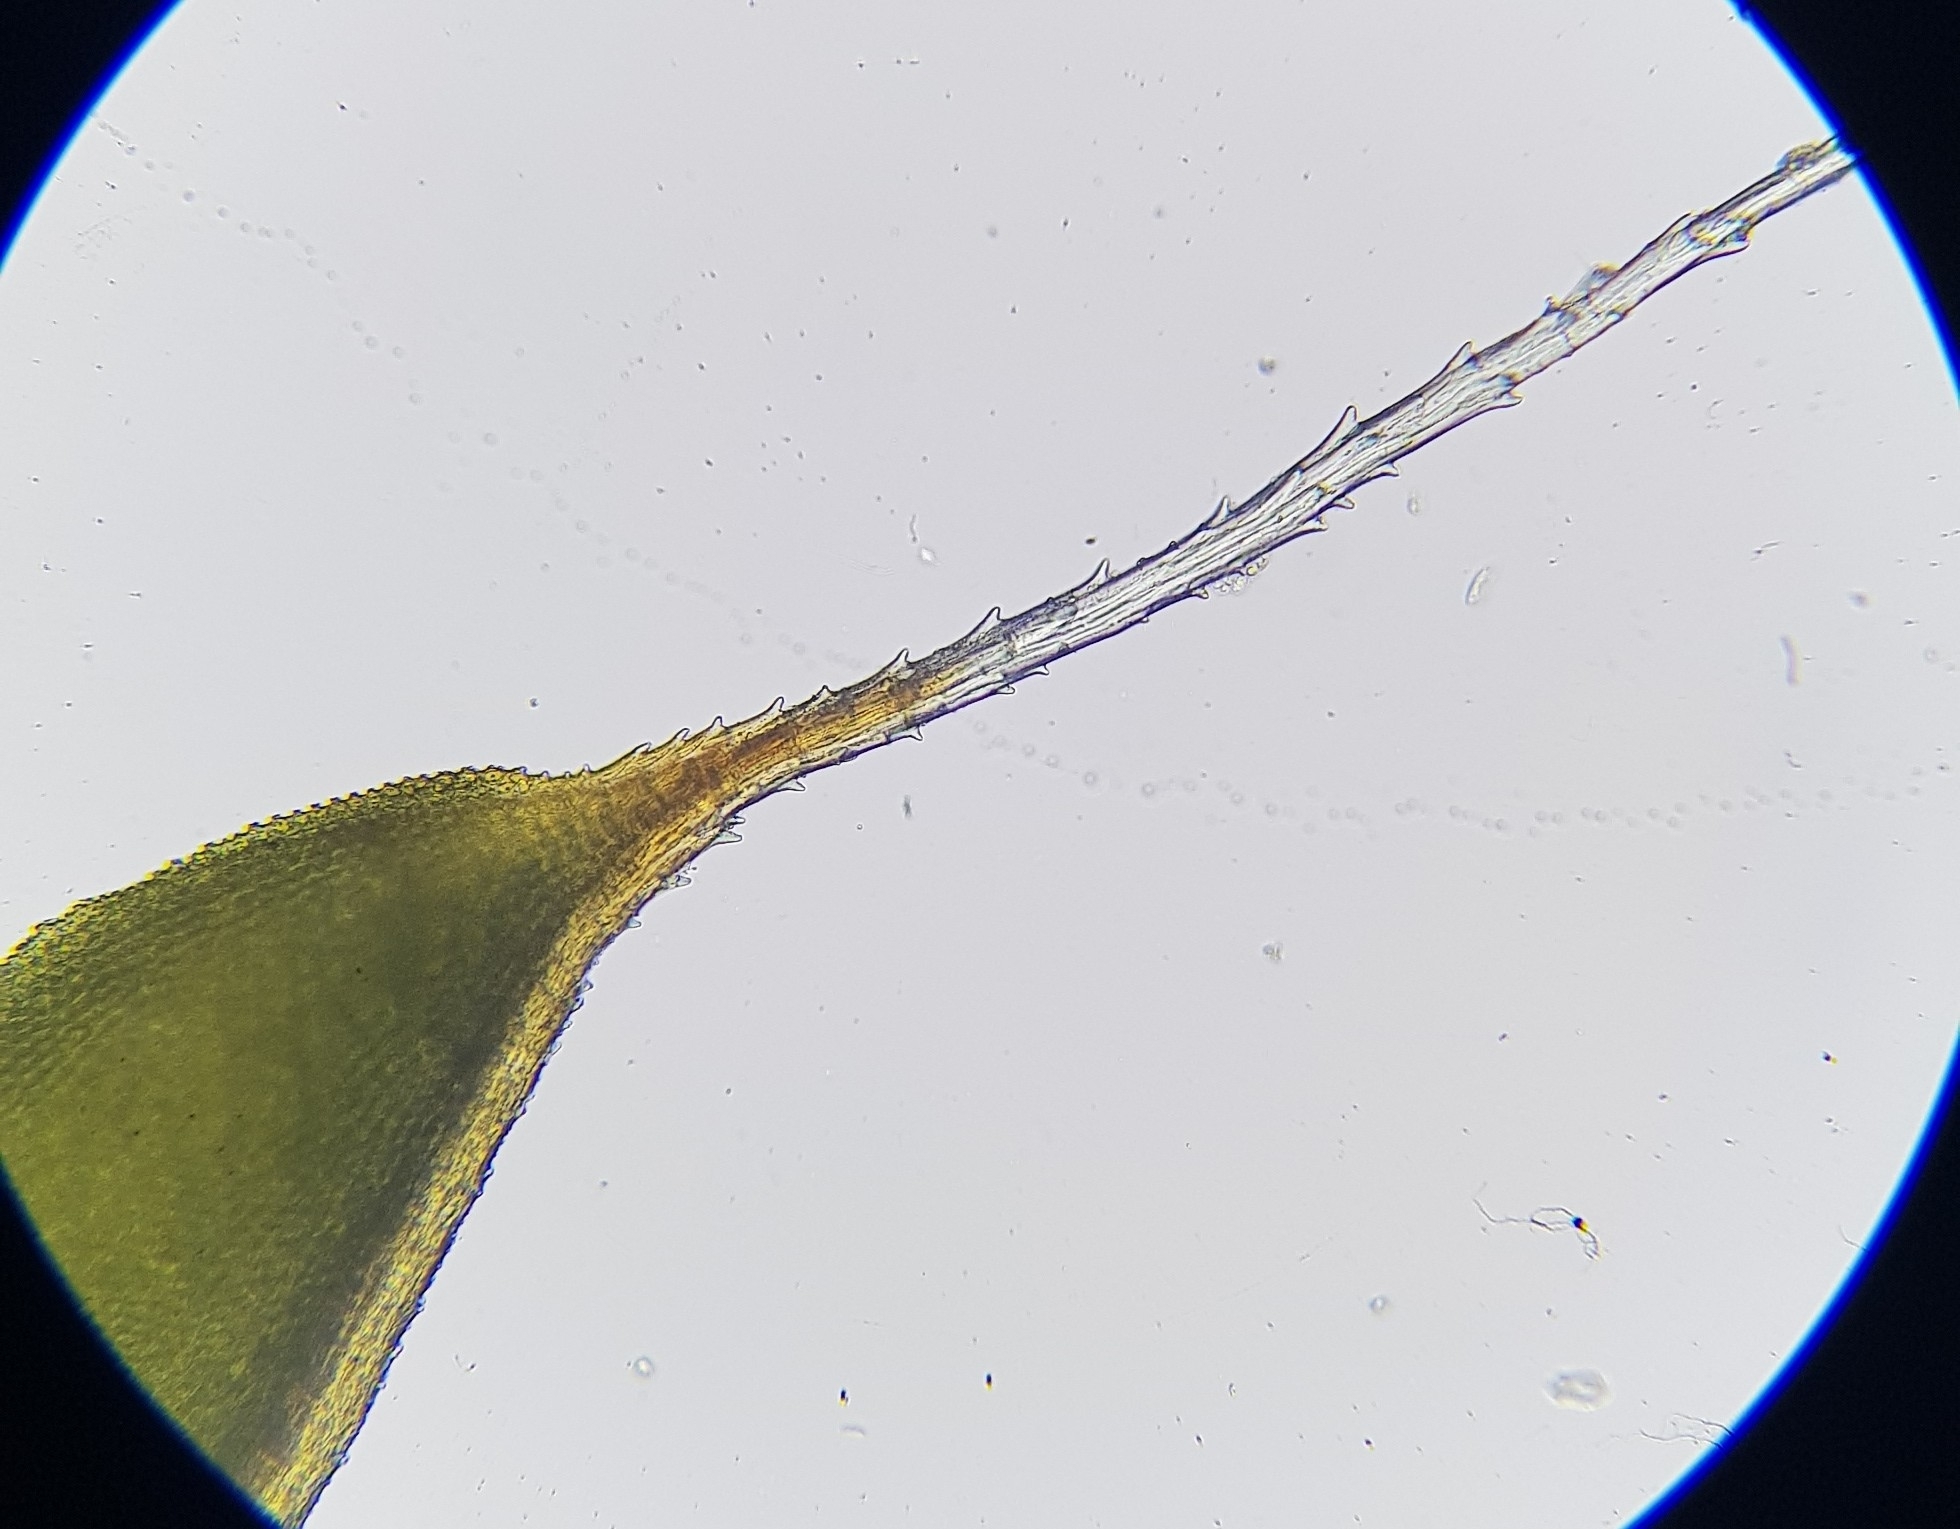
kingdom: Plantae
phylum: Bryophyta
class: Bryopsida
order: Pottiales
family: Pottiaceae
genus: Syntrichia
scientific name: Syntrichia ruralis
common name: Sidewalk screw moss
